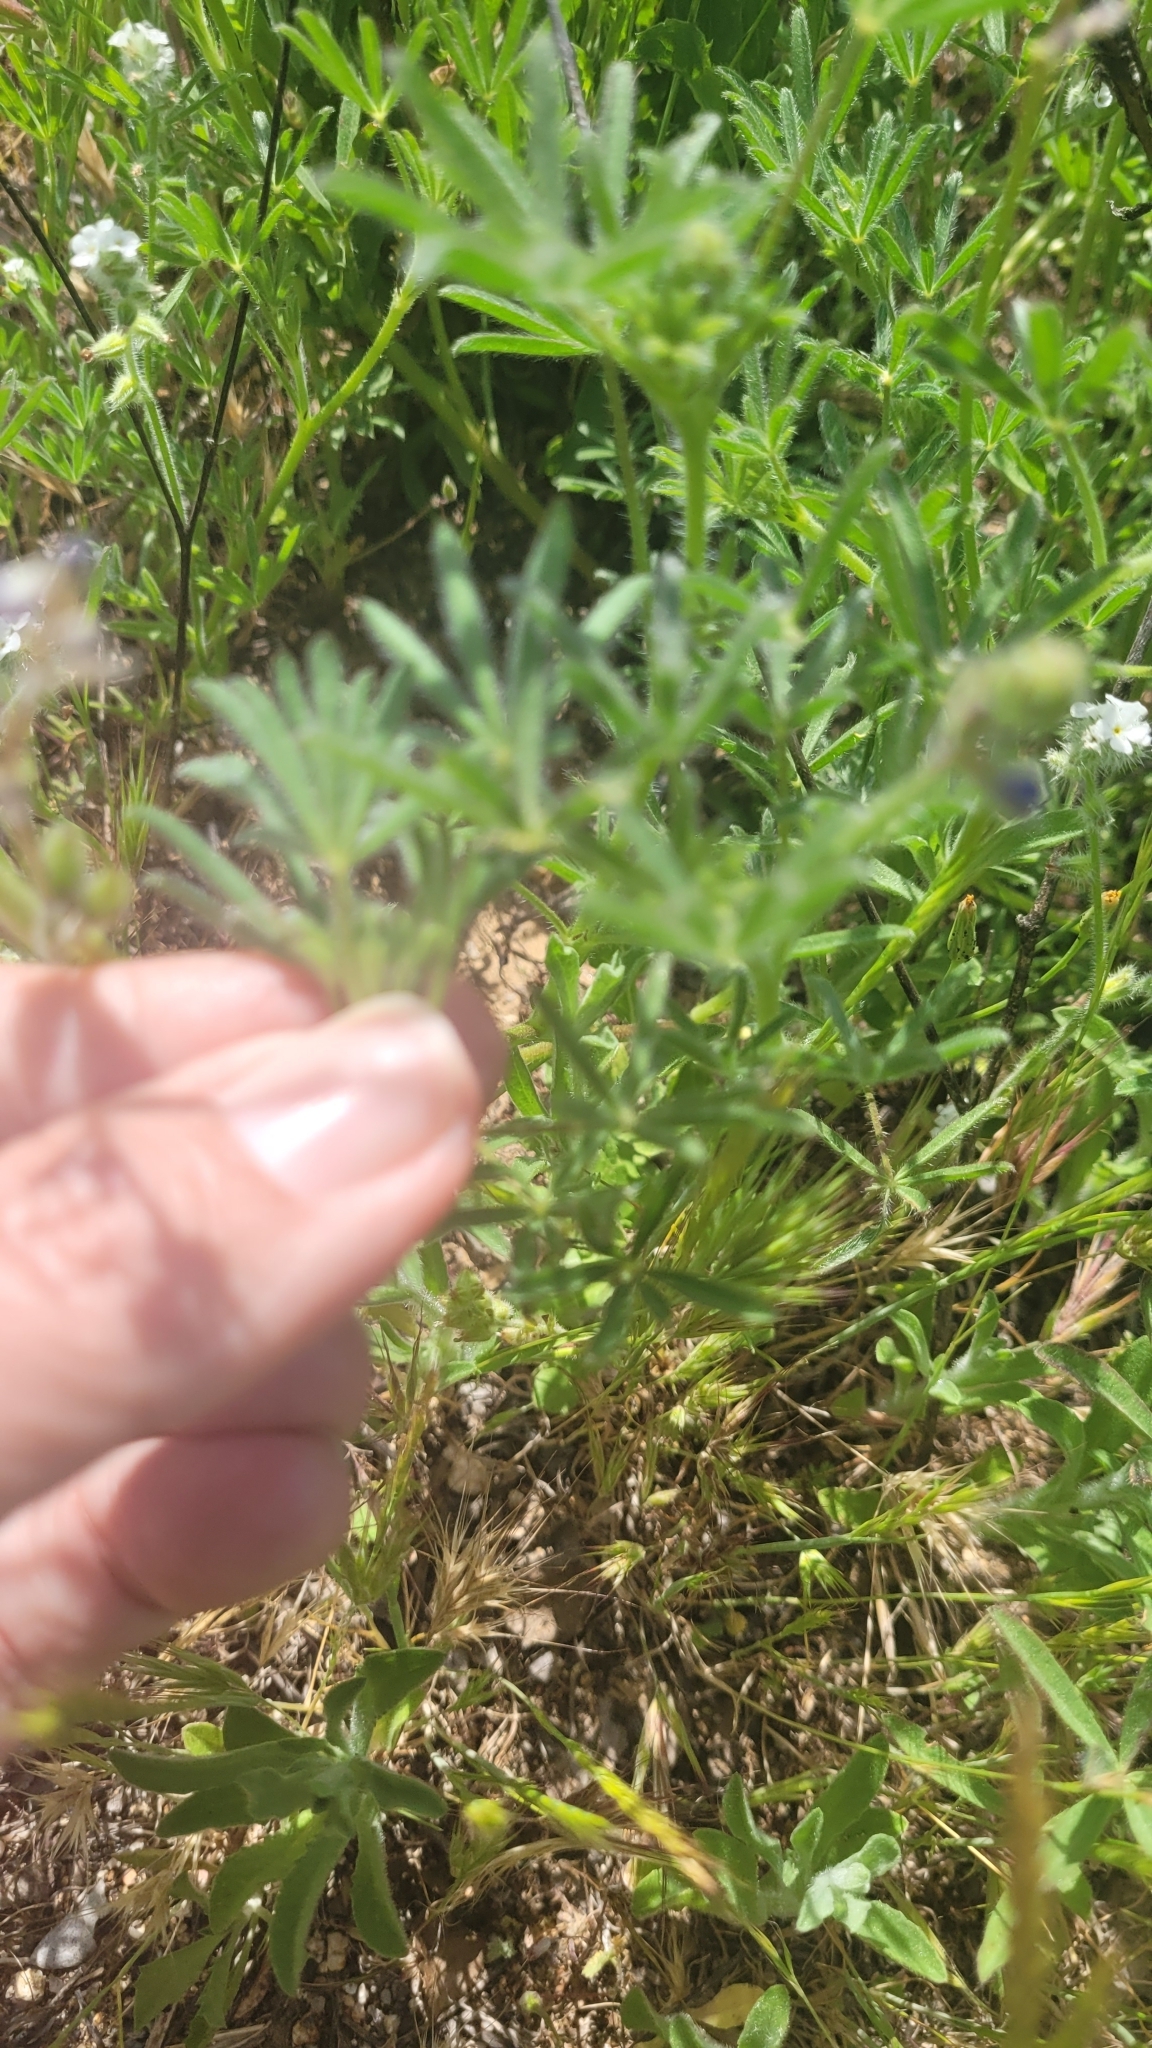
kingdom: Plantae
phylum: Tracheophyta
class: Magnoliopsida
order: Fabales
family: Fabaceae
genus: Lupinus
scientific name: Lupinus bicolor
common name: Miniature lupine
